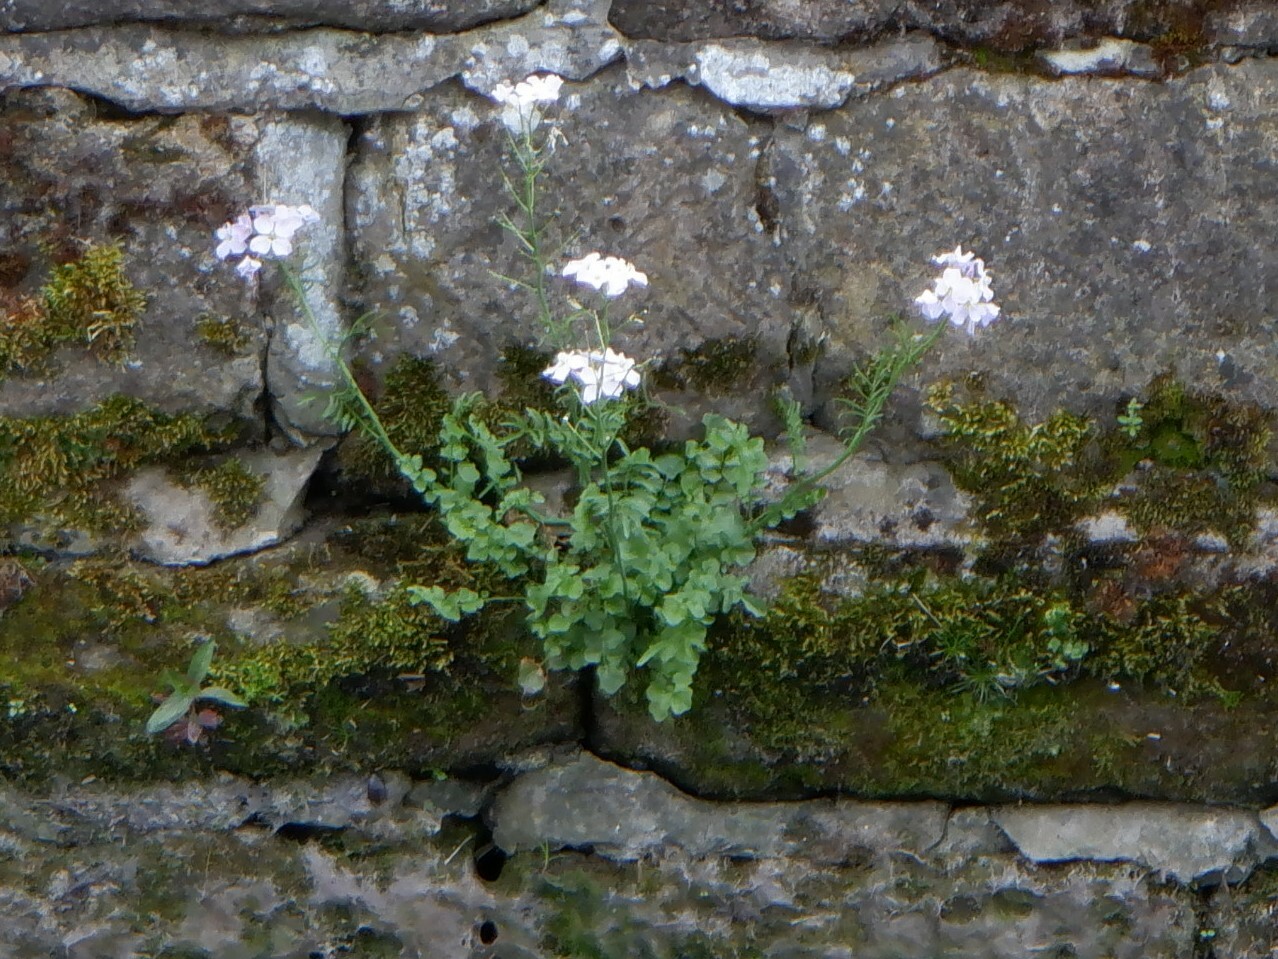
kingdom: Plantae
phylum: Tracheophyta
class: Magnoliopsida
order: Brassicales
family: Brassicaceae
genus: Cardamine
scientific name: Cardamine pratensis
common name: Cuckoo flower
